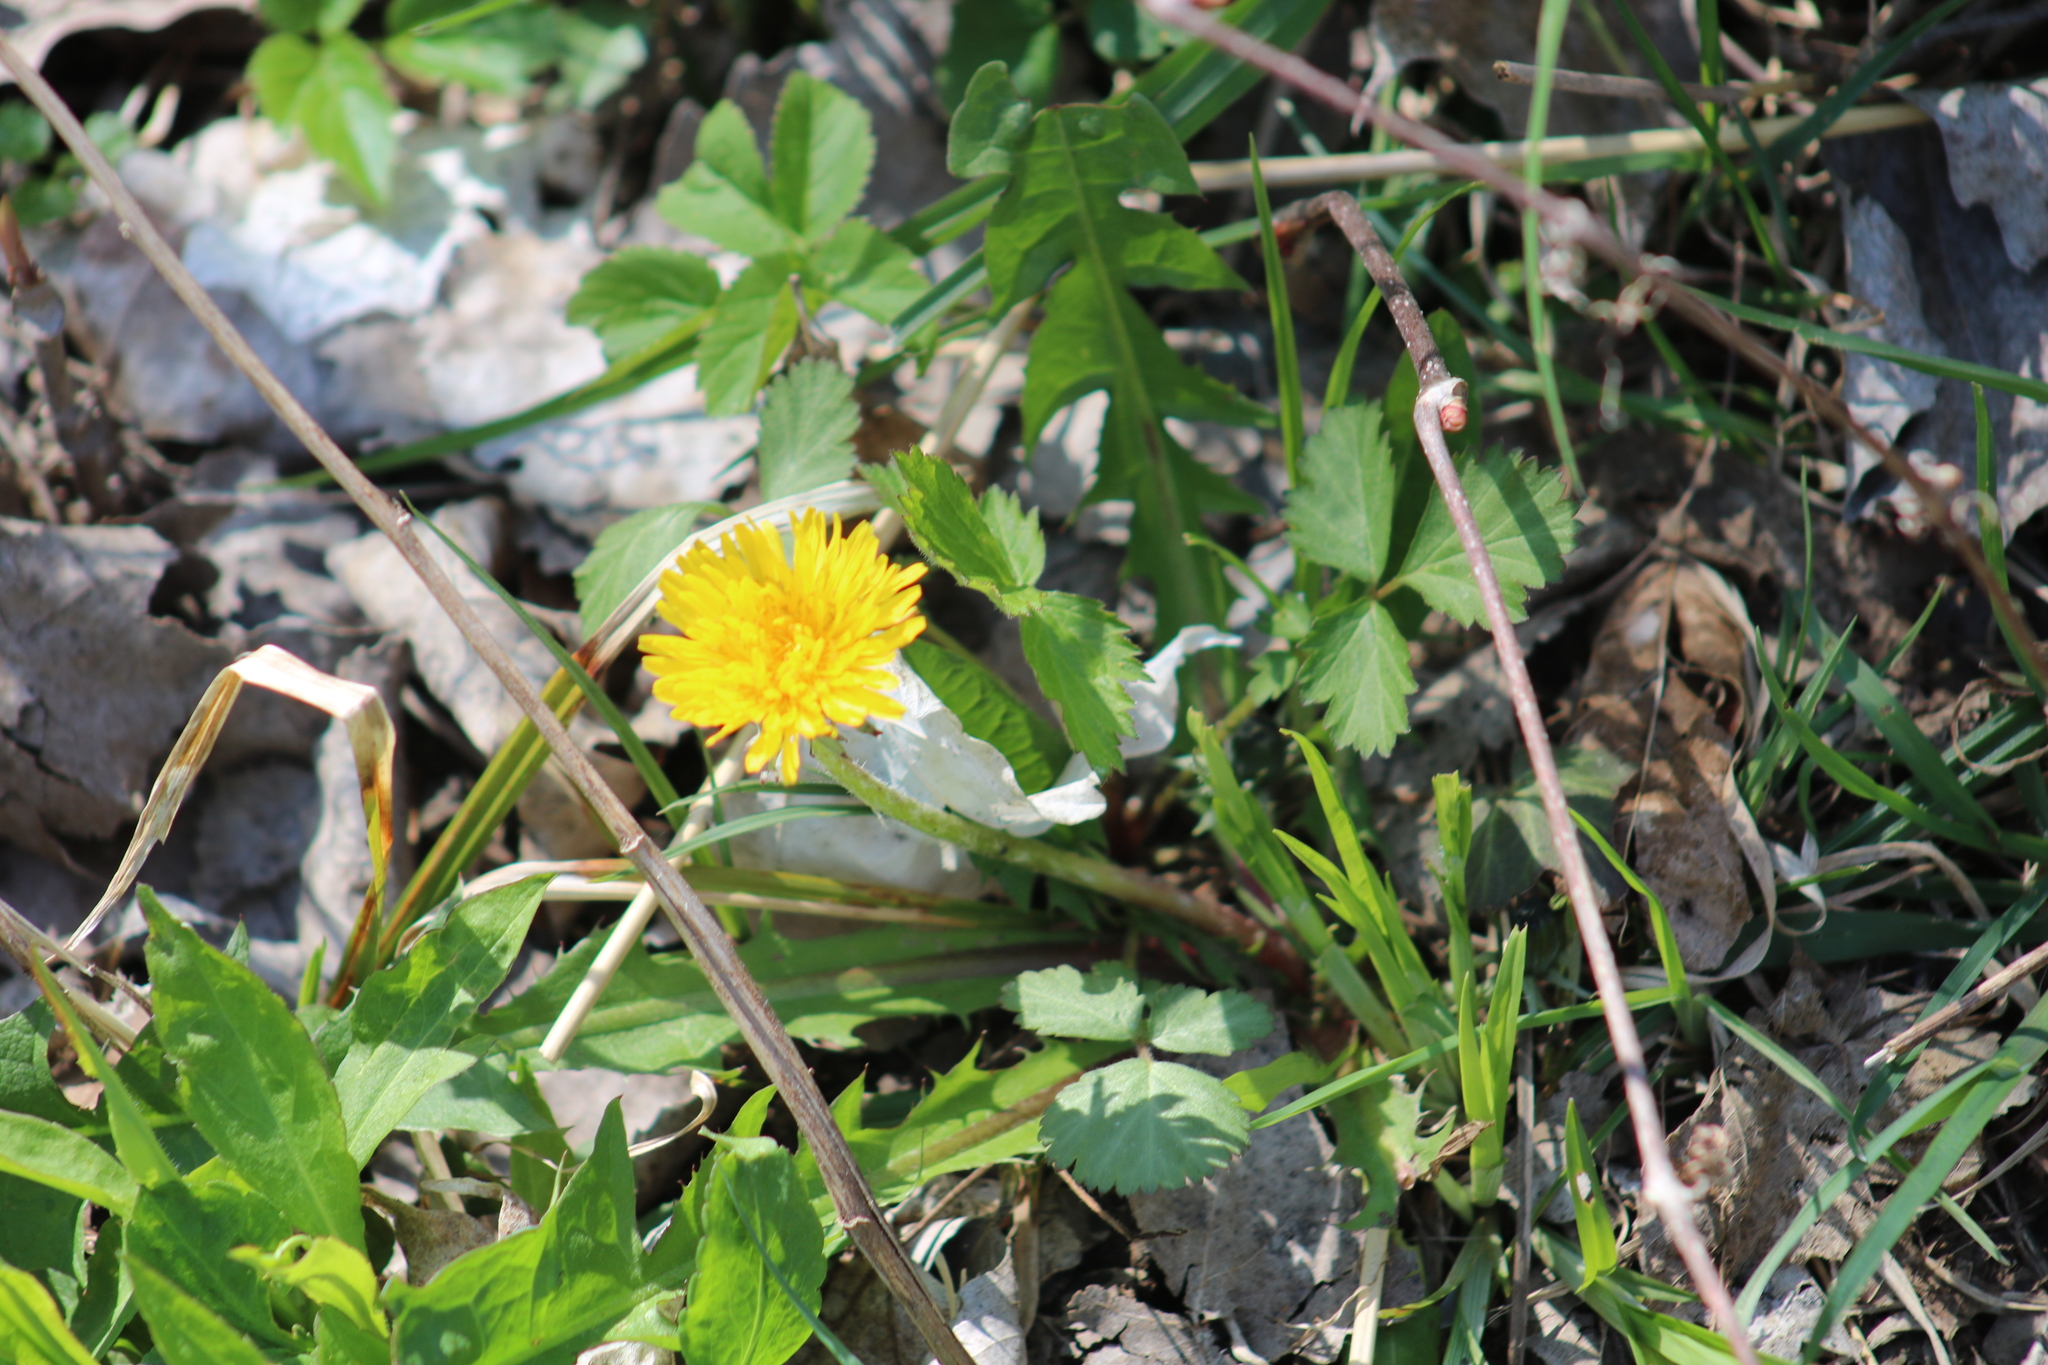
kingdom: Plantae
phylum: Tracheophyta
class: Magnoliopsida
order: Asterales
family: Asteraceae
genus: Taraxacum
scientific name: Taraxacum officinale
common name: Common dandelion
